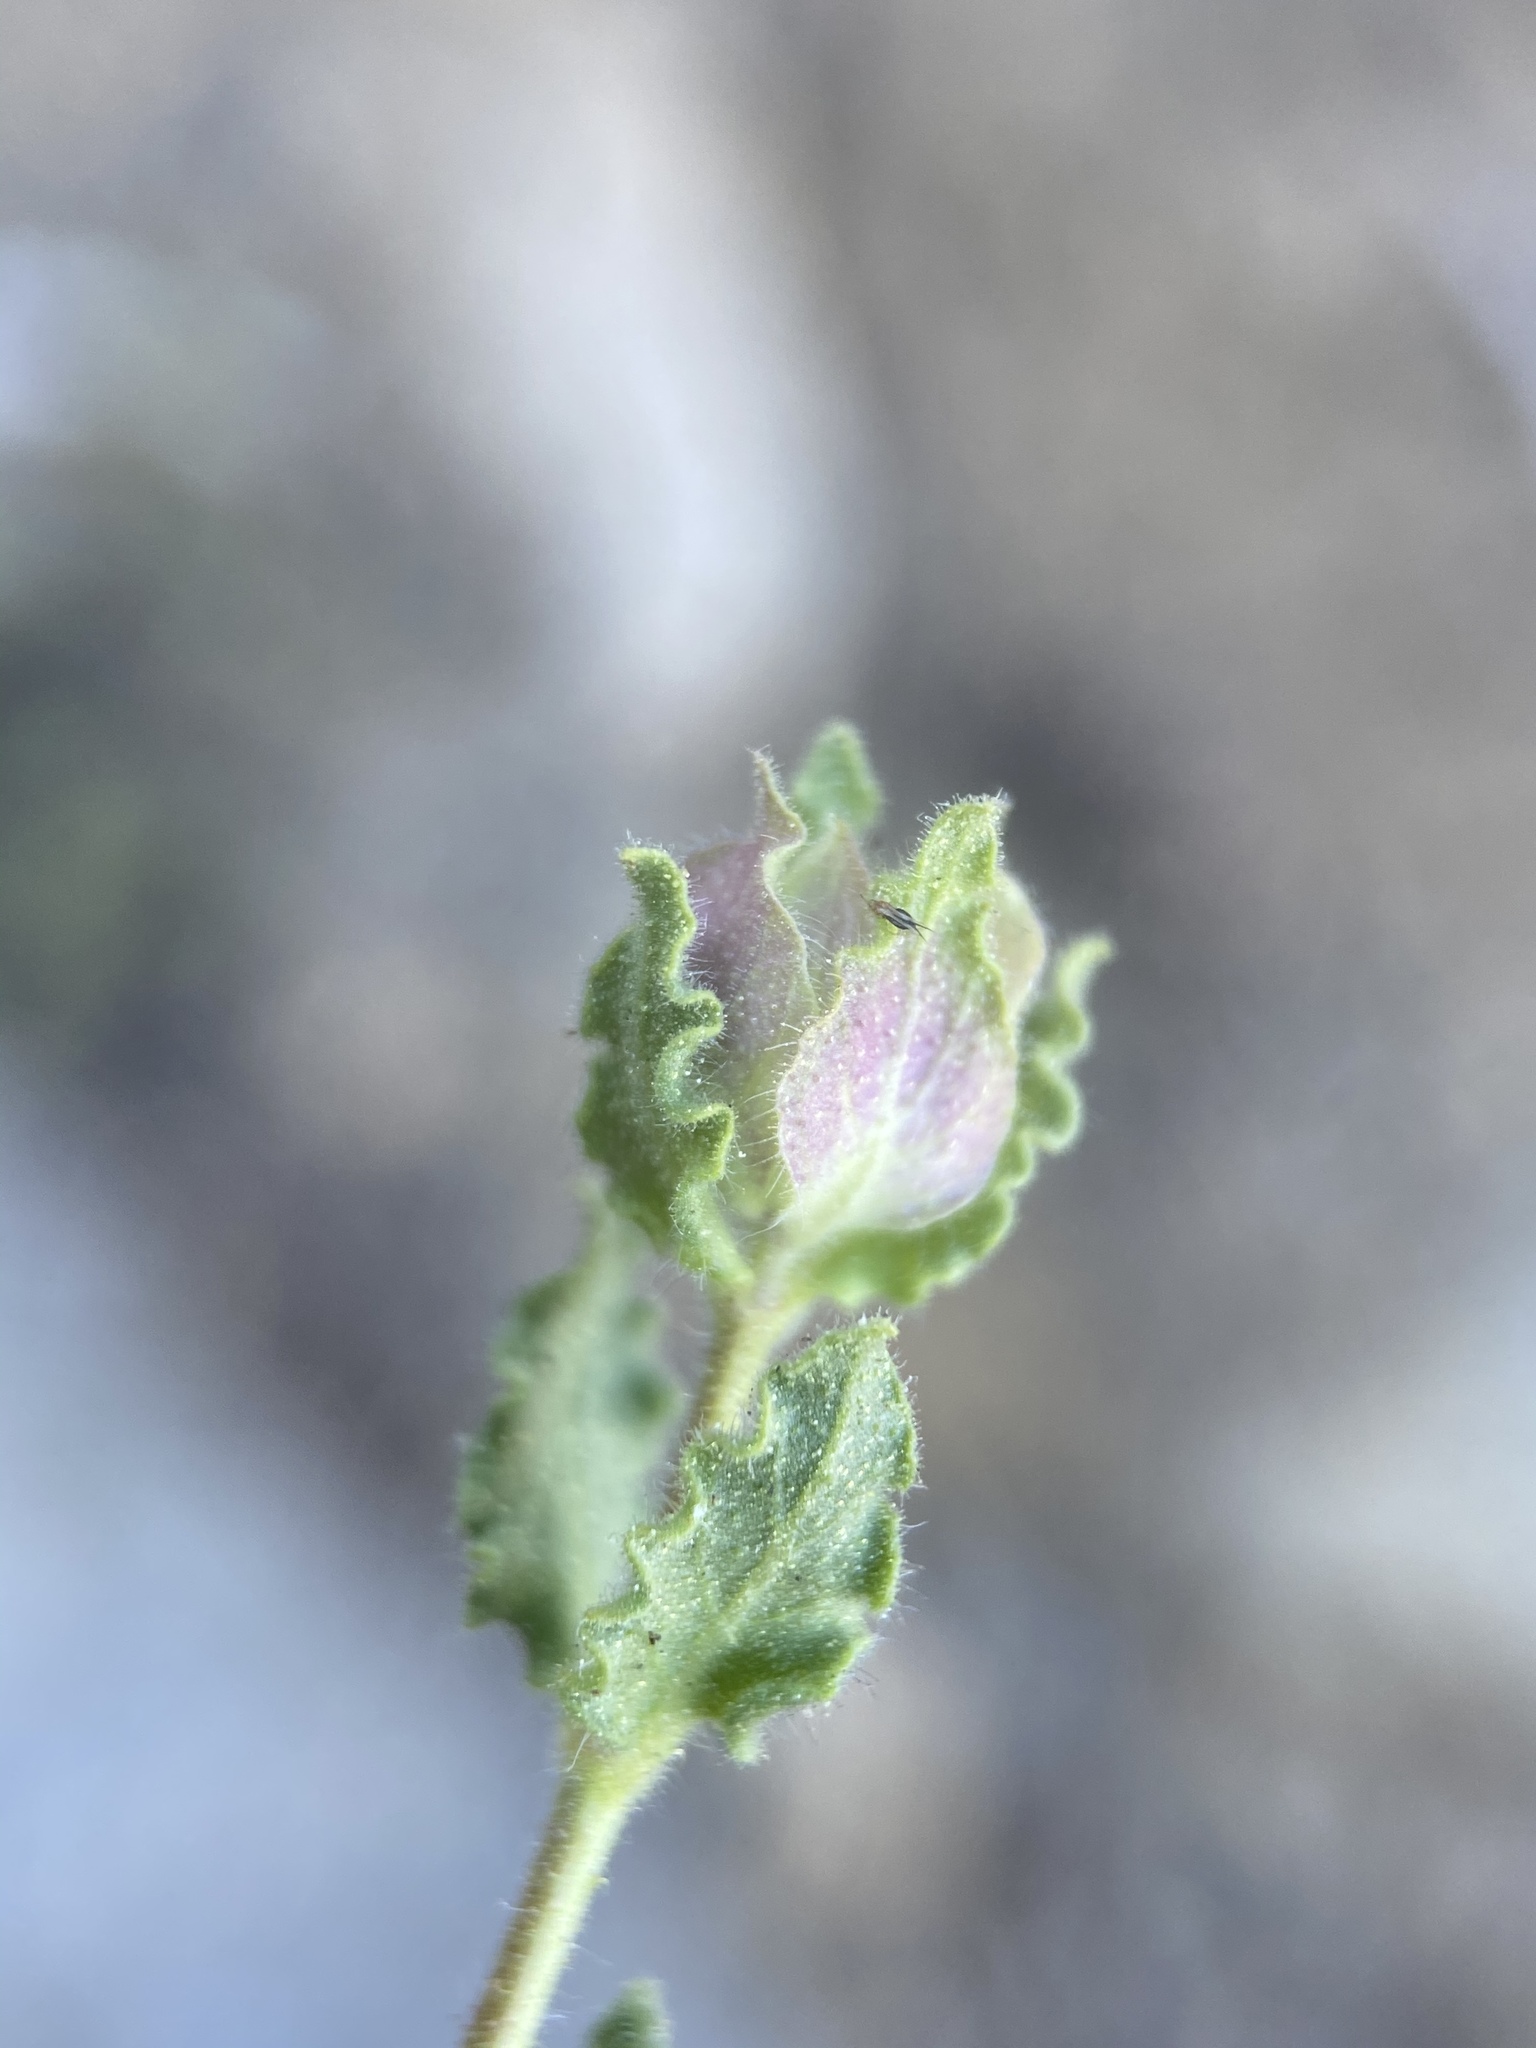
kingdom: Plantae
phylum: Tracheophyta
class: Magnoliopsida
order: Lamiales
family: Lamiaceae
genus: Monardella
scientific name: Monardella beneolens
